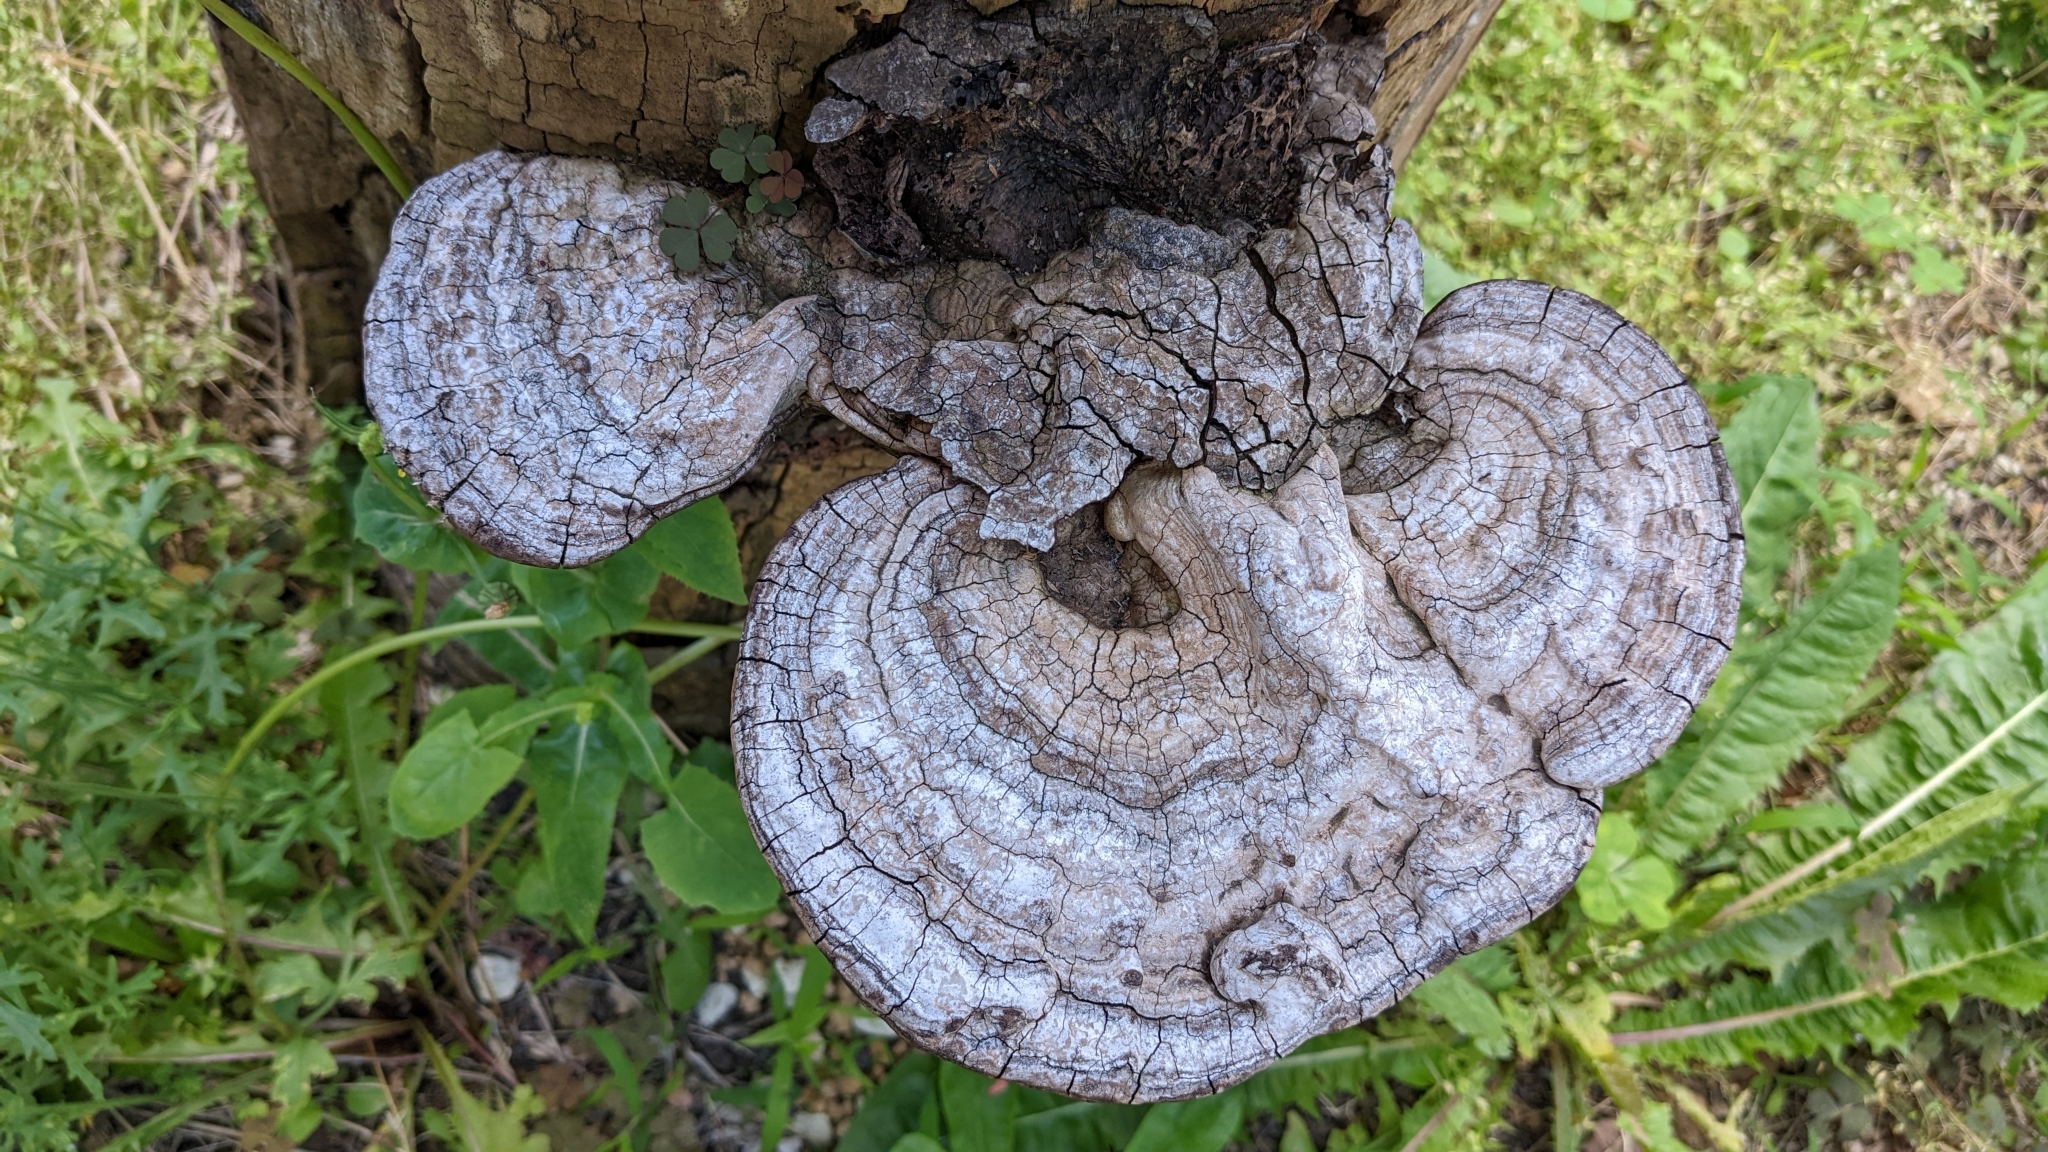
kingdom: Fungi
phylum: Basidiomycota
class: Agaricomycetes
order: Polyporales
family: Polyporaceae
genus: Ganoderma
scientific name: Ganoderma applanatum
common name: Artist's bracket
